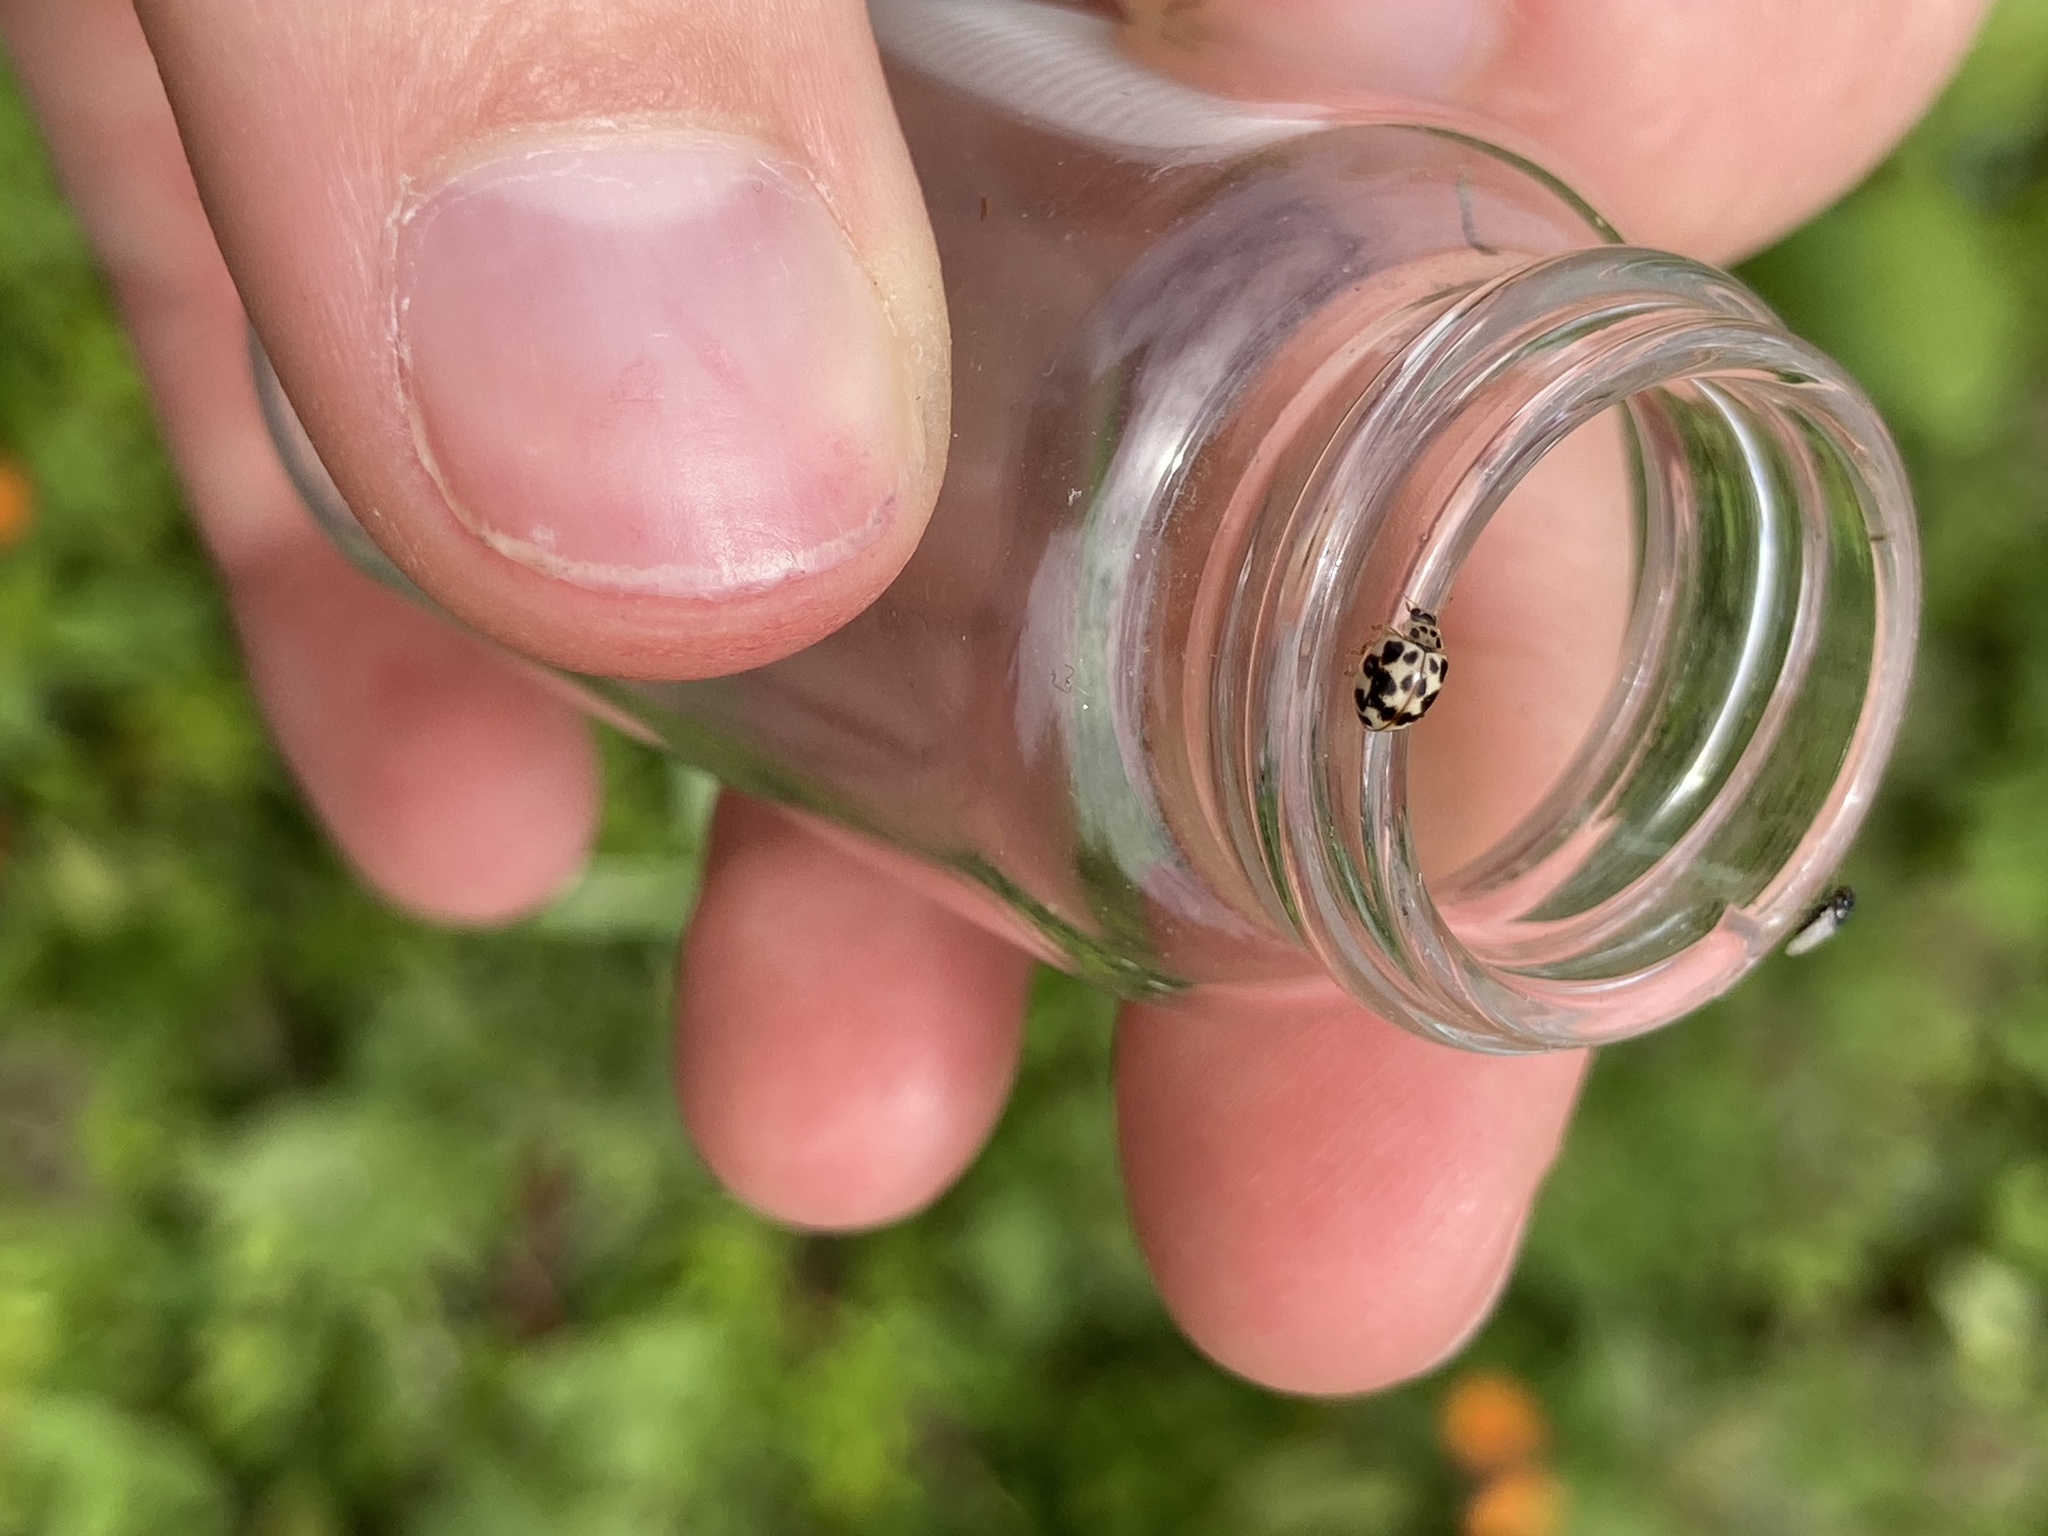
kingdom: Animalia
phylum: Arthropoda
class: Insecta
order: Coleoptera
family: Coccinellidae
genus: Psyllobora
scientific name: Psyllobora vigintimaculata
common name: Ladybird beetle
